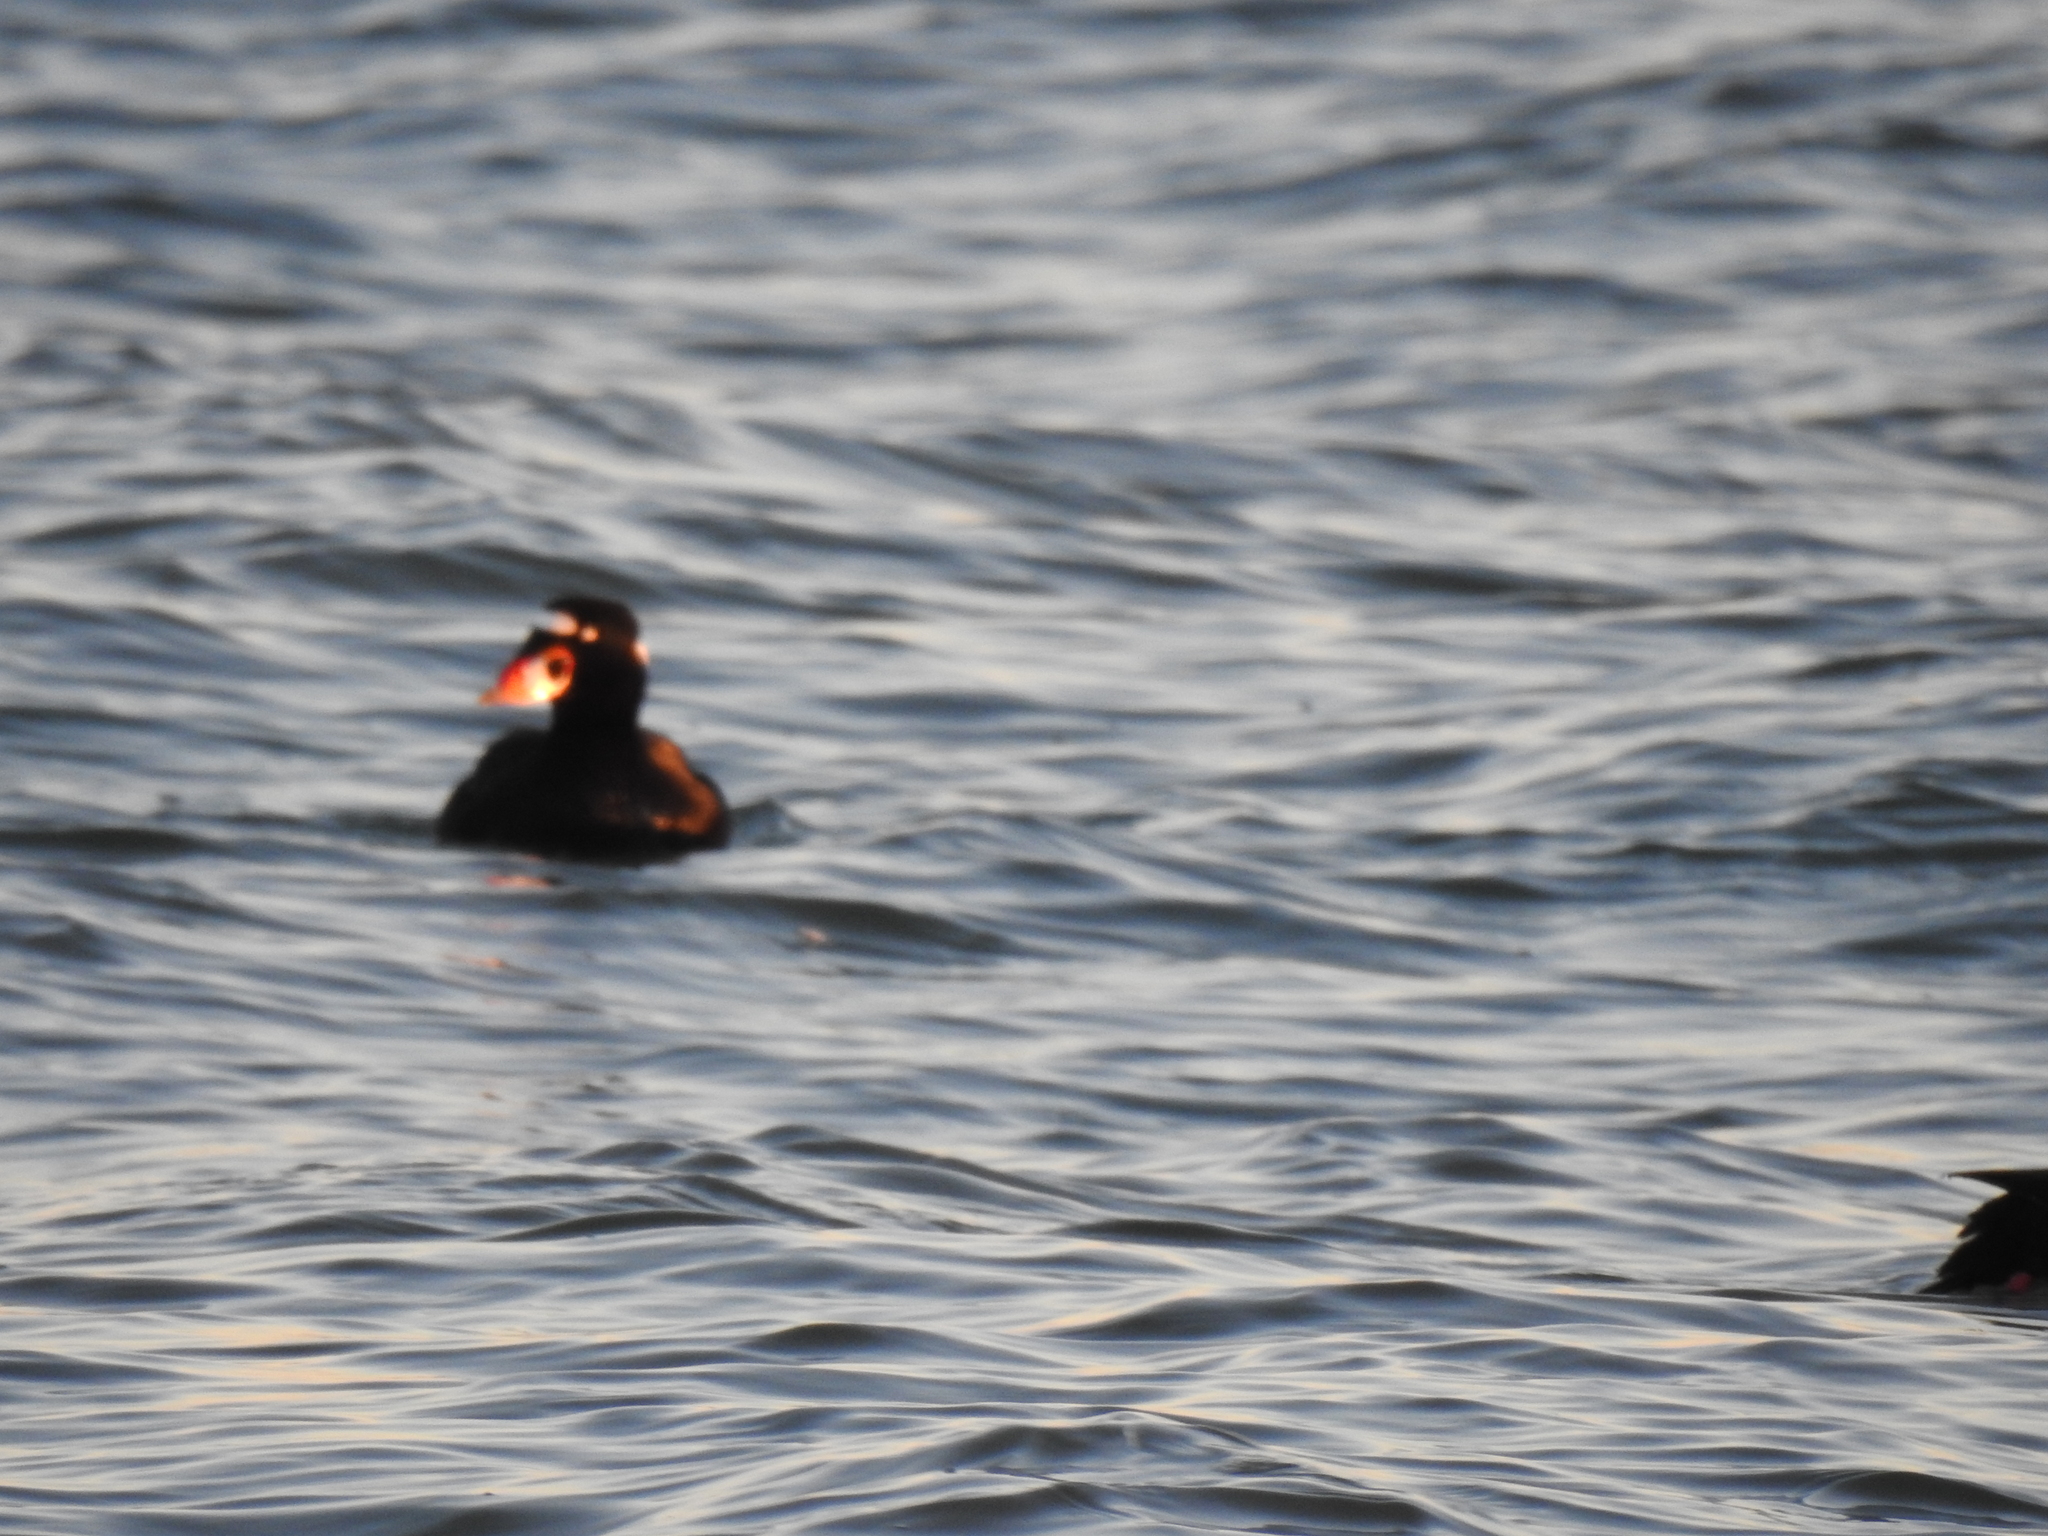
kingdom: Animalia
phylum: Chordata
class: Aves
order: Anseriformes
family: Anatidae
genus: Melanitta
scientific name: Melanitta perspicillata
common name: Surf scoter
